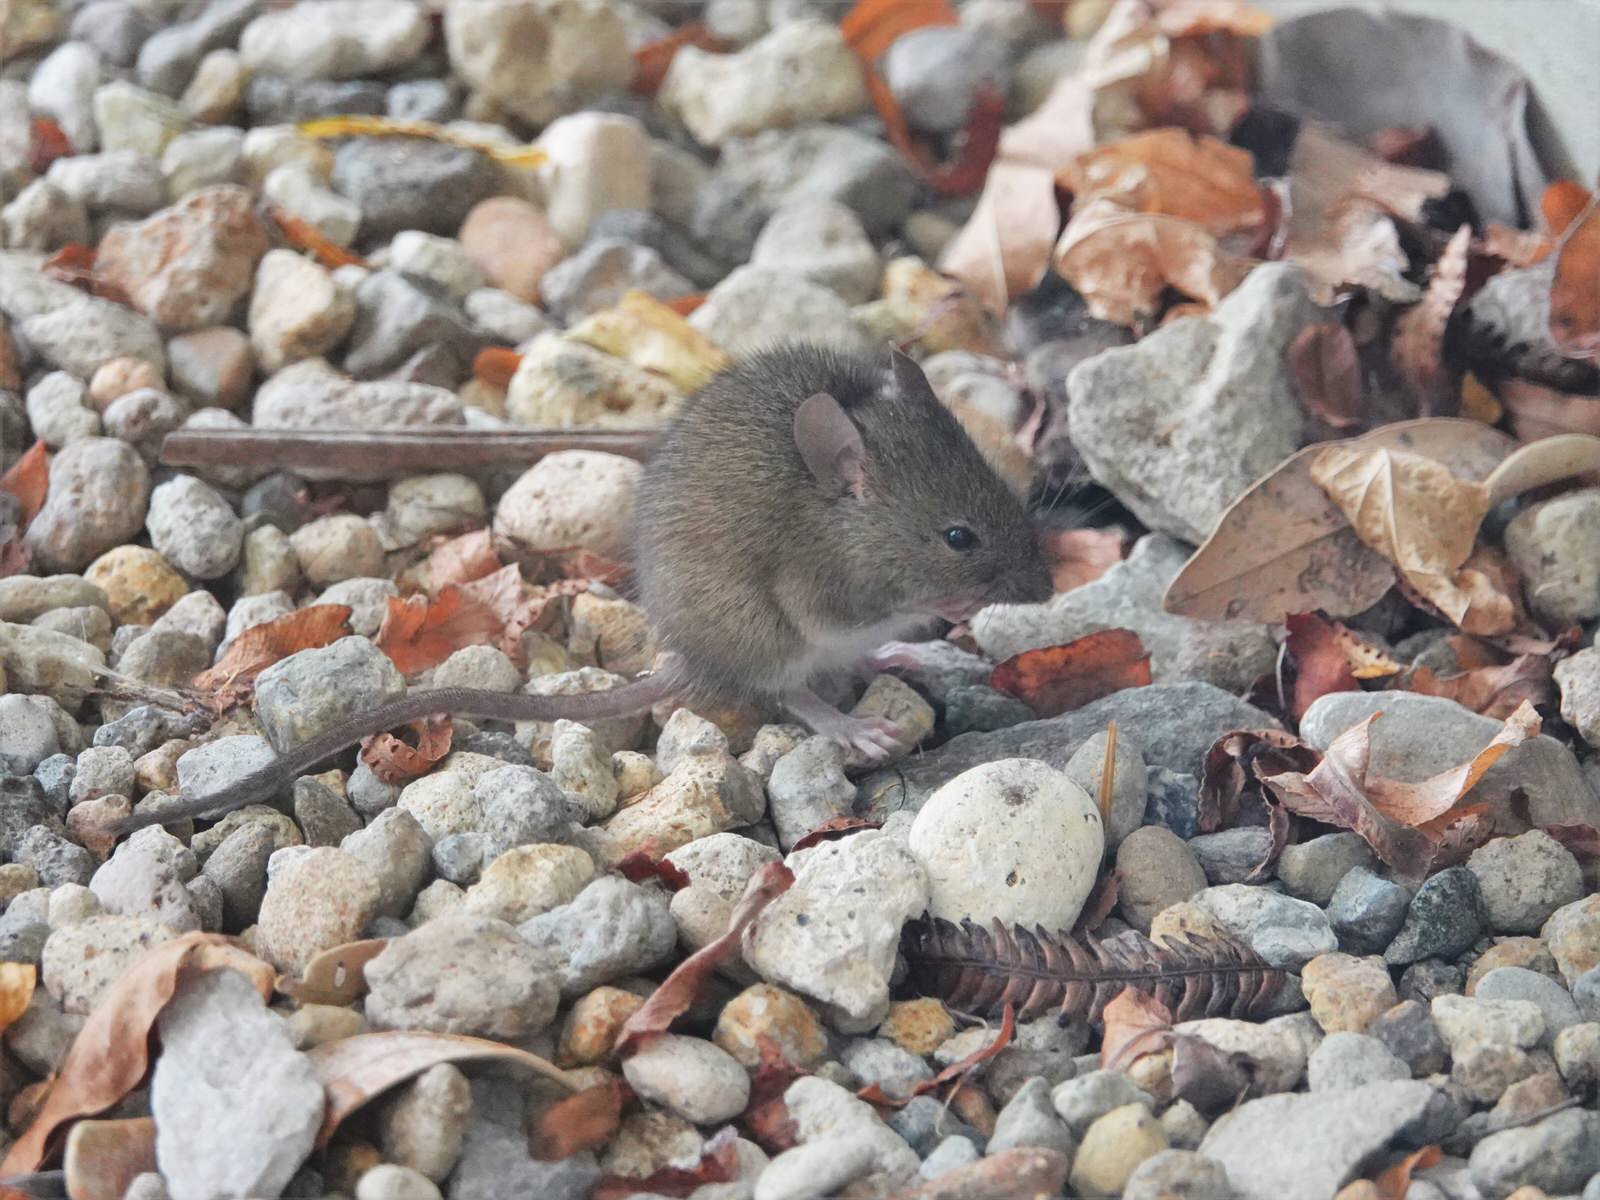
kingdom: Animalia
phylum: Chordata
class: Mammalia
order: Rodentia
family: Muridae
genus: Mus
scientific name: Mus musculus
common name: House mouse
